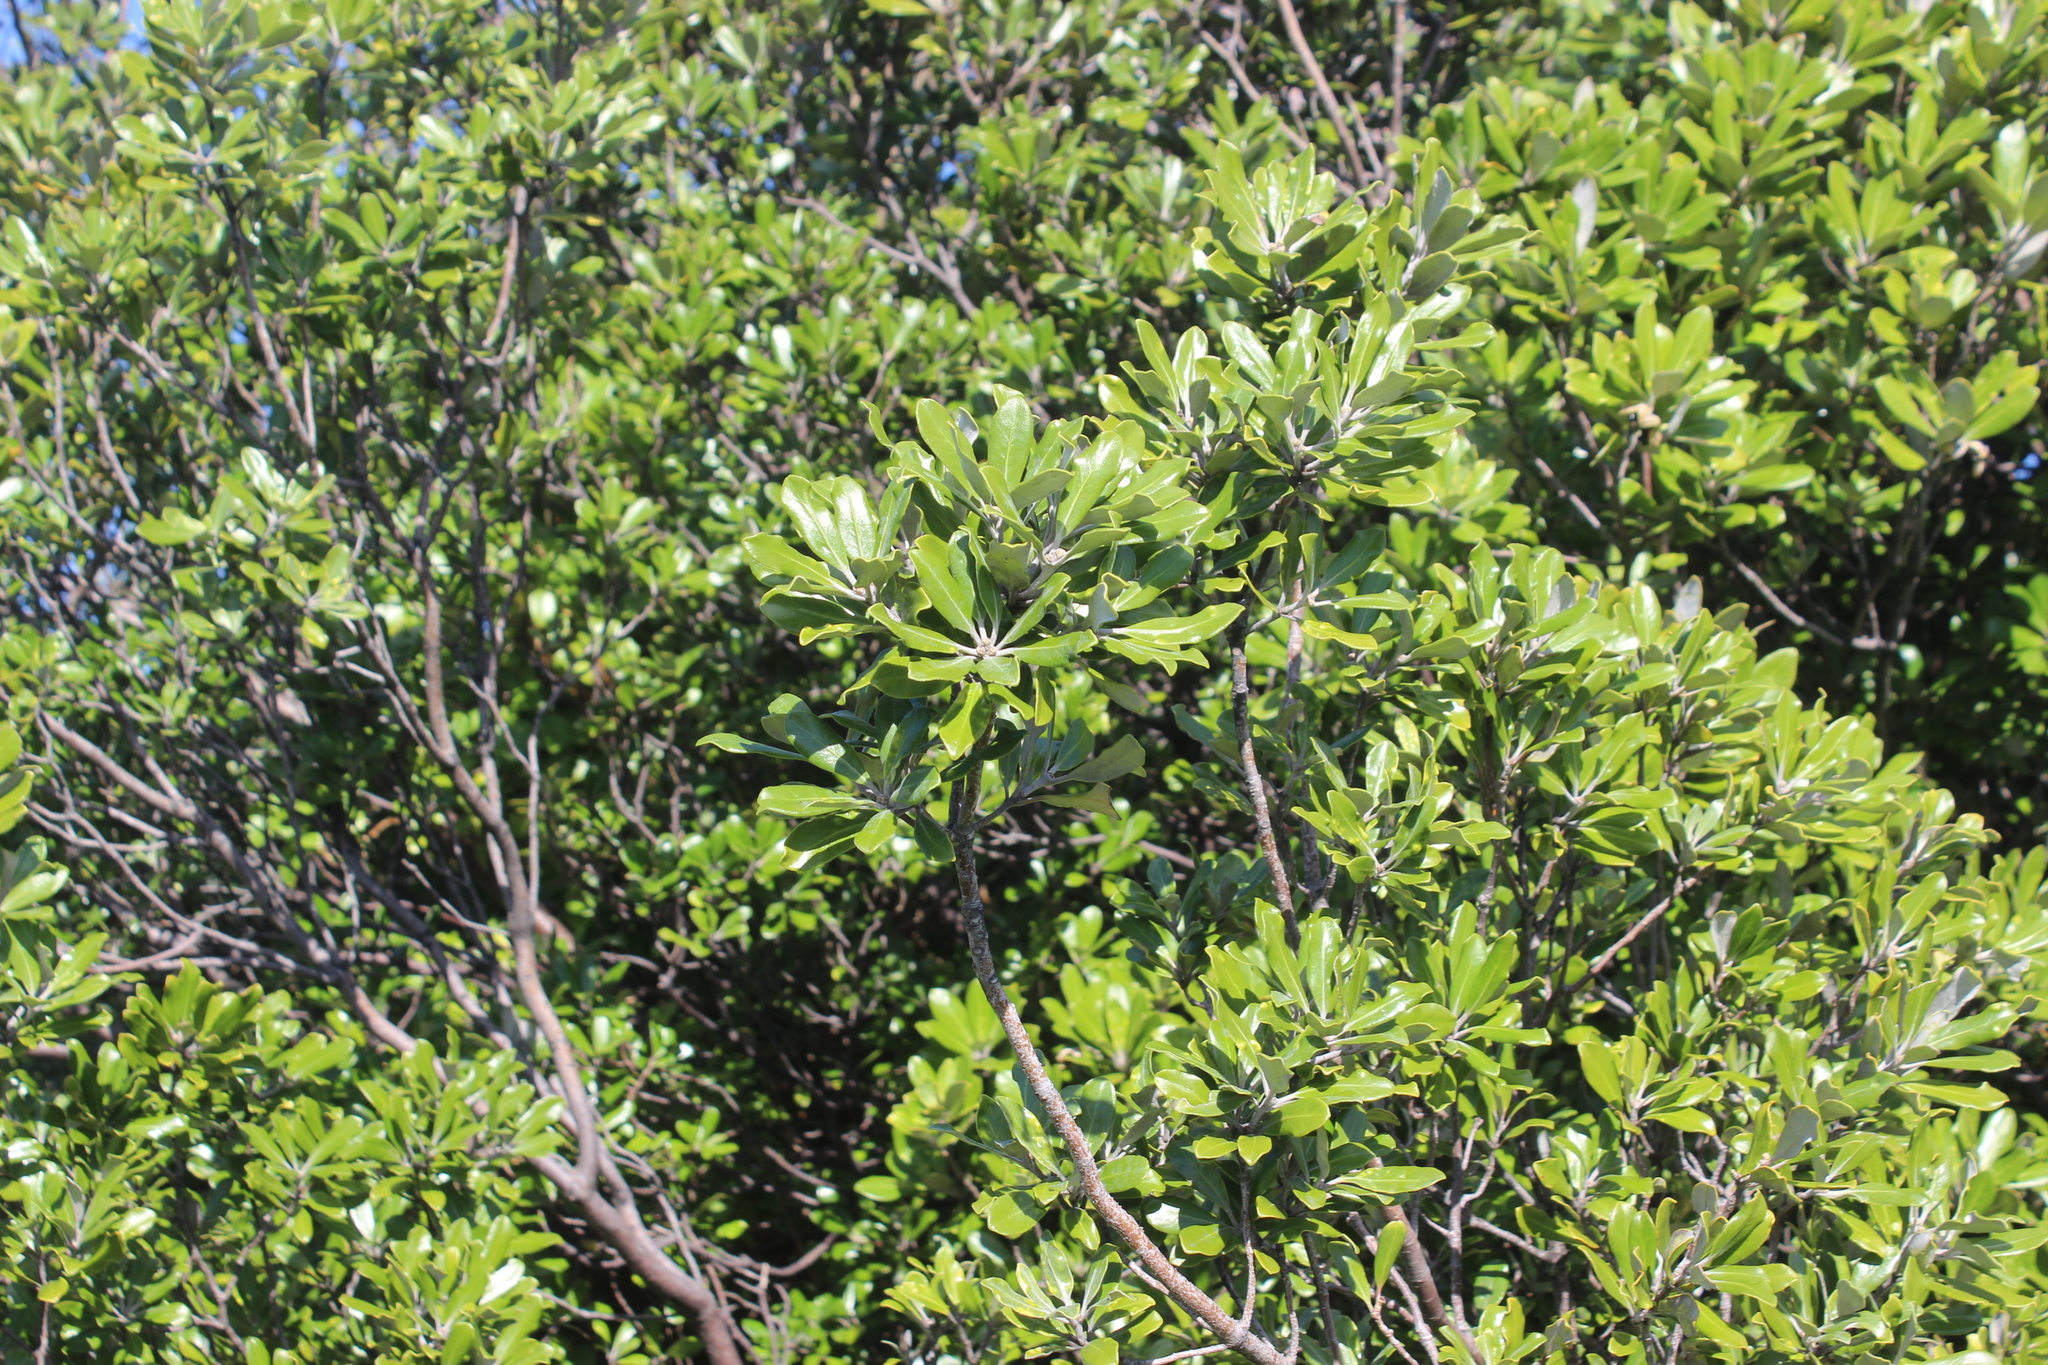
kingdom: Plantae
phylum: Tracheophyta
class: Magnoliopsida
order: Apiales
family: Pittosporaceae
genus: Pittosporum
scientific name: Pittosporum crassifolium
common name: Karo
